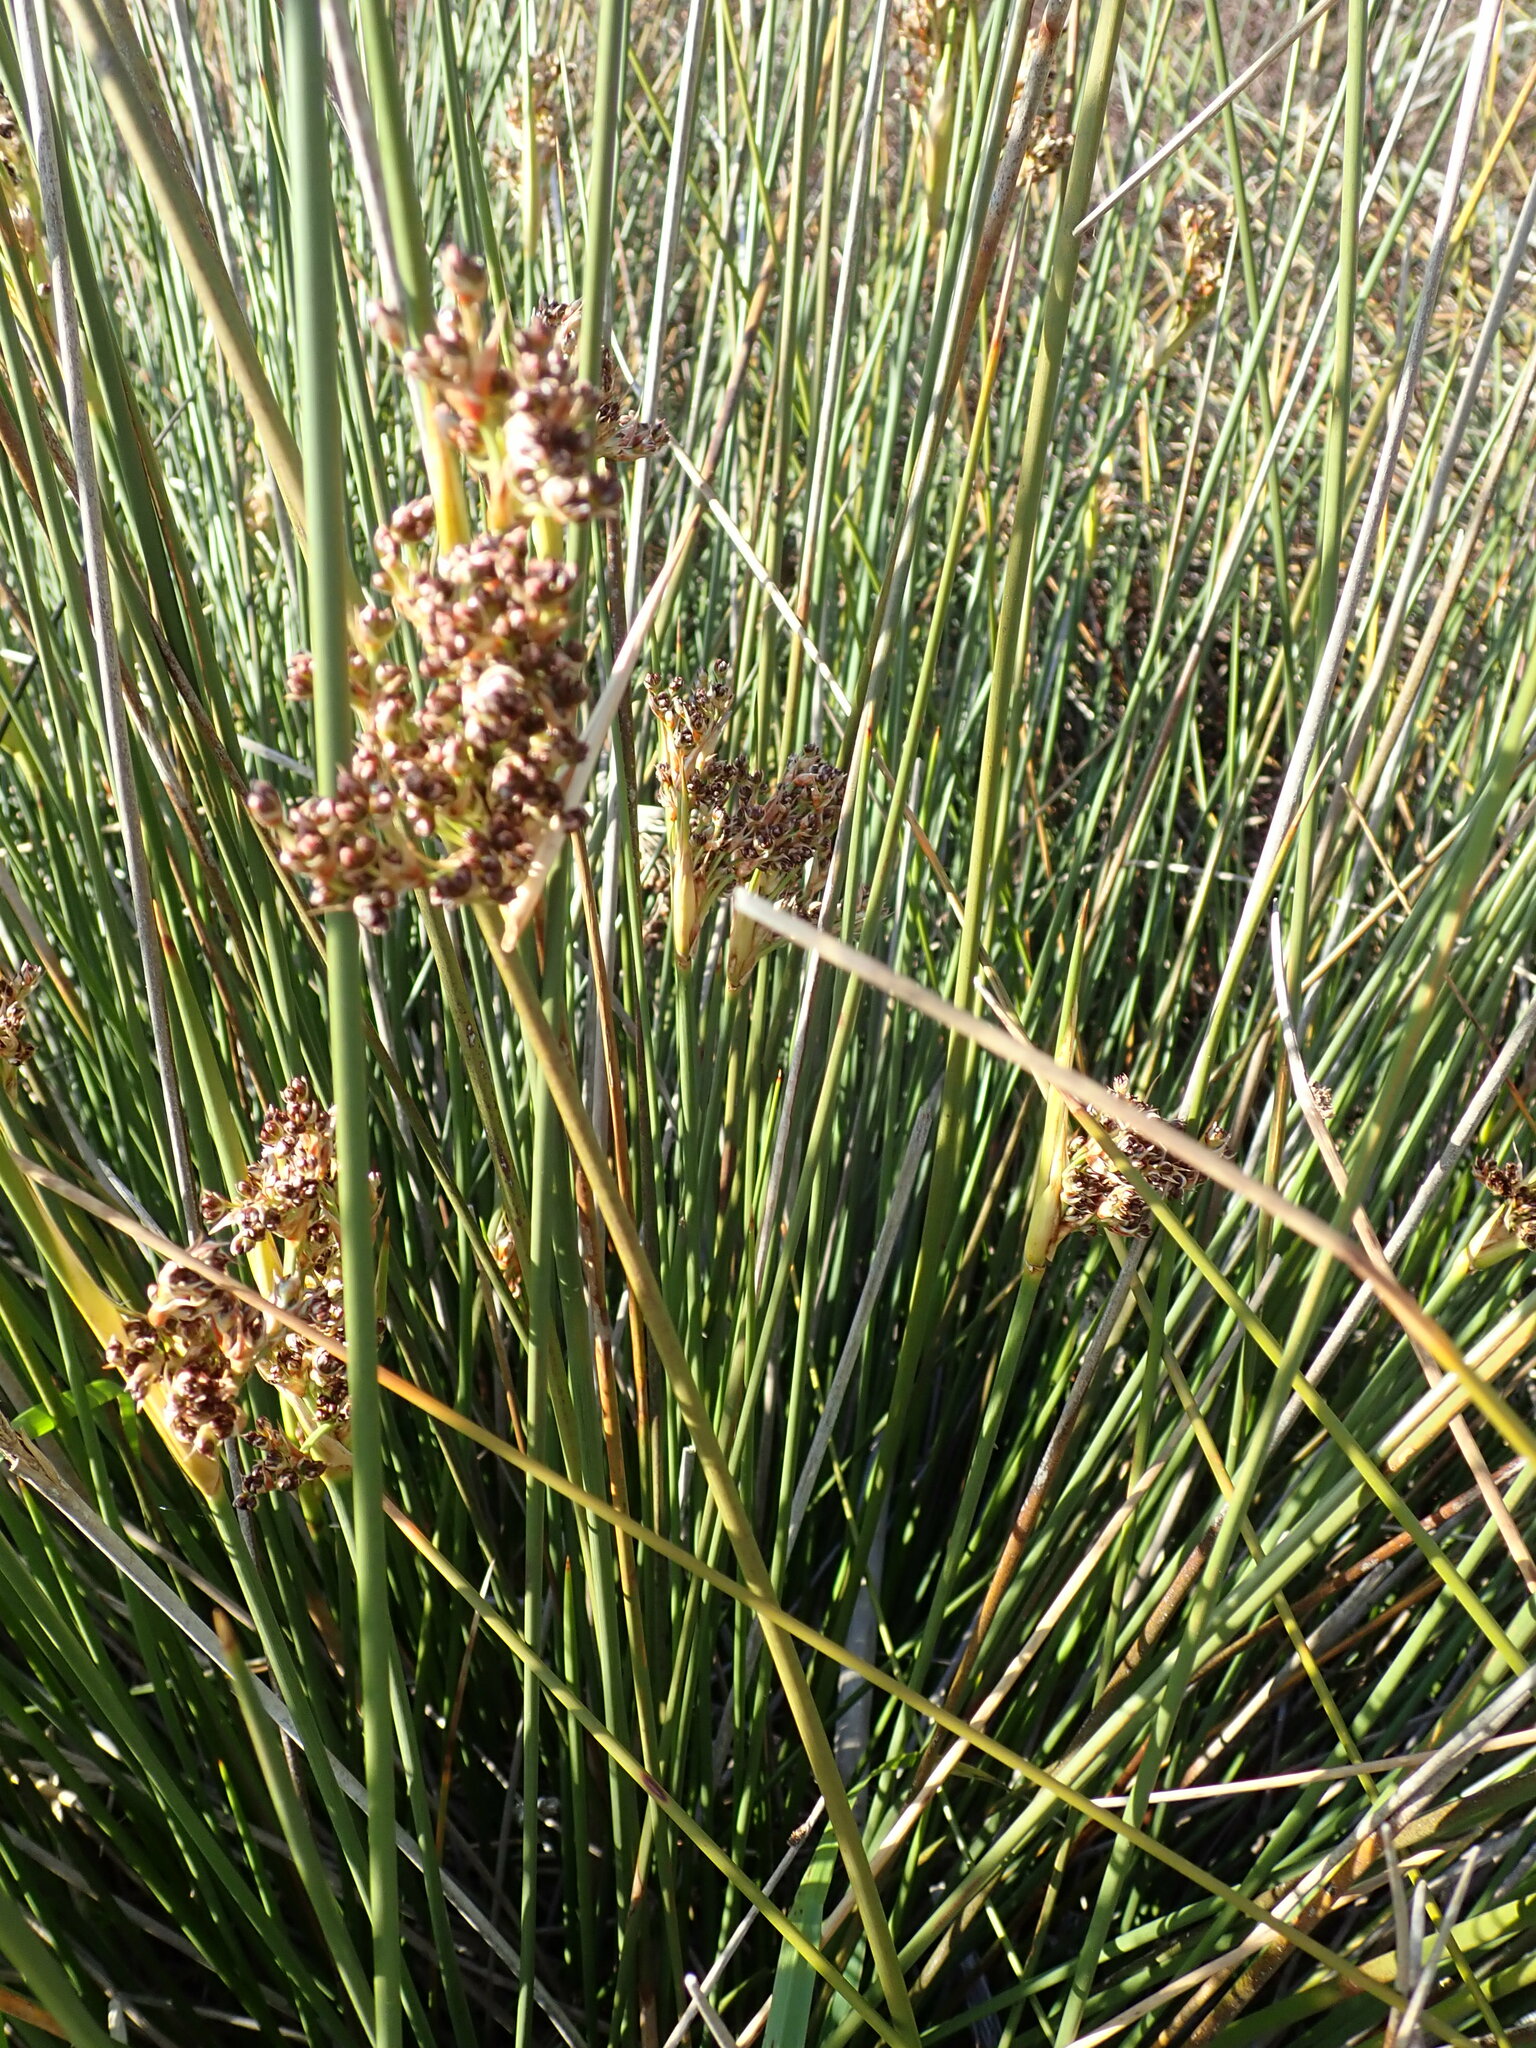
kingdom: Plantae
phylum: Tracheophyta
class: Liliopsida
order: Poales
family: Juncaceae
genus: Juncus
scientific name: Juncus acutus
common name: Sharp rush
